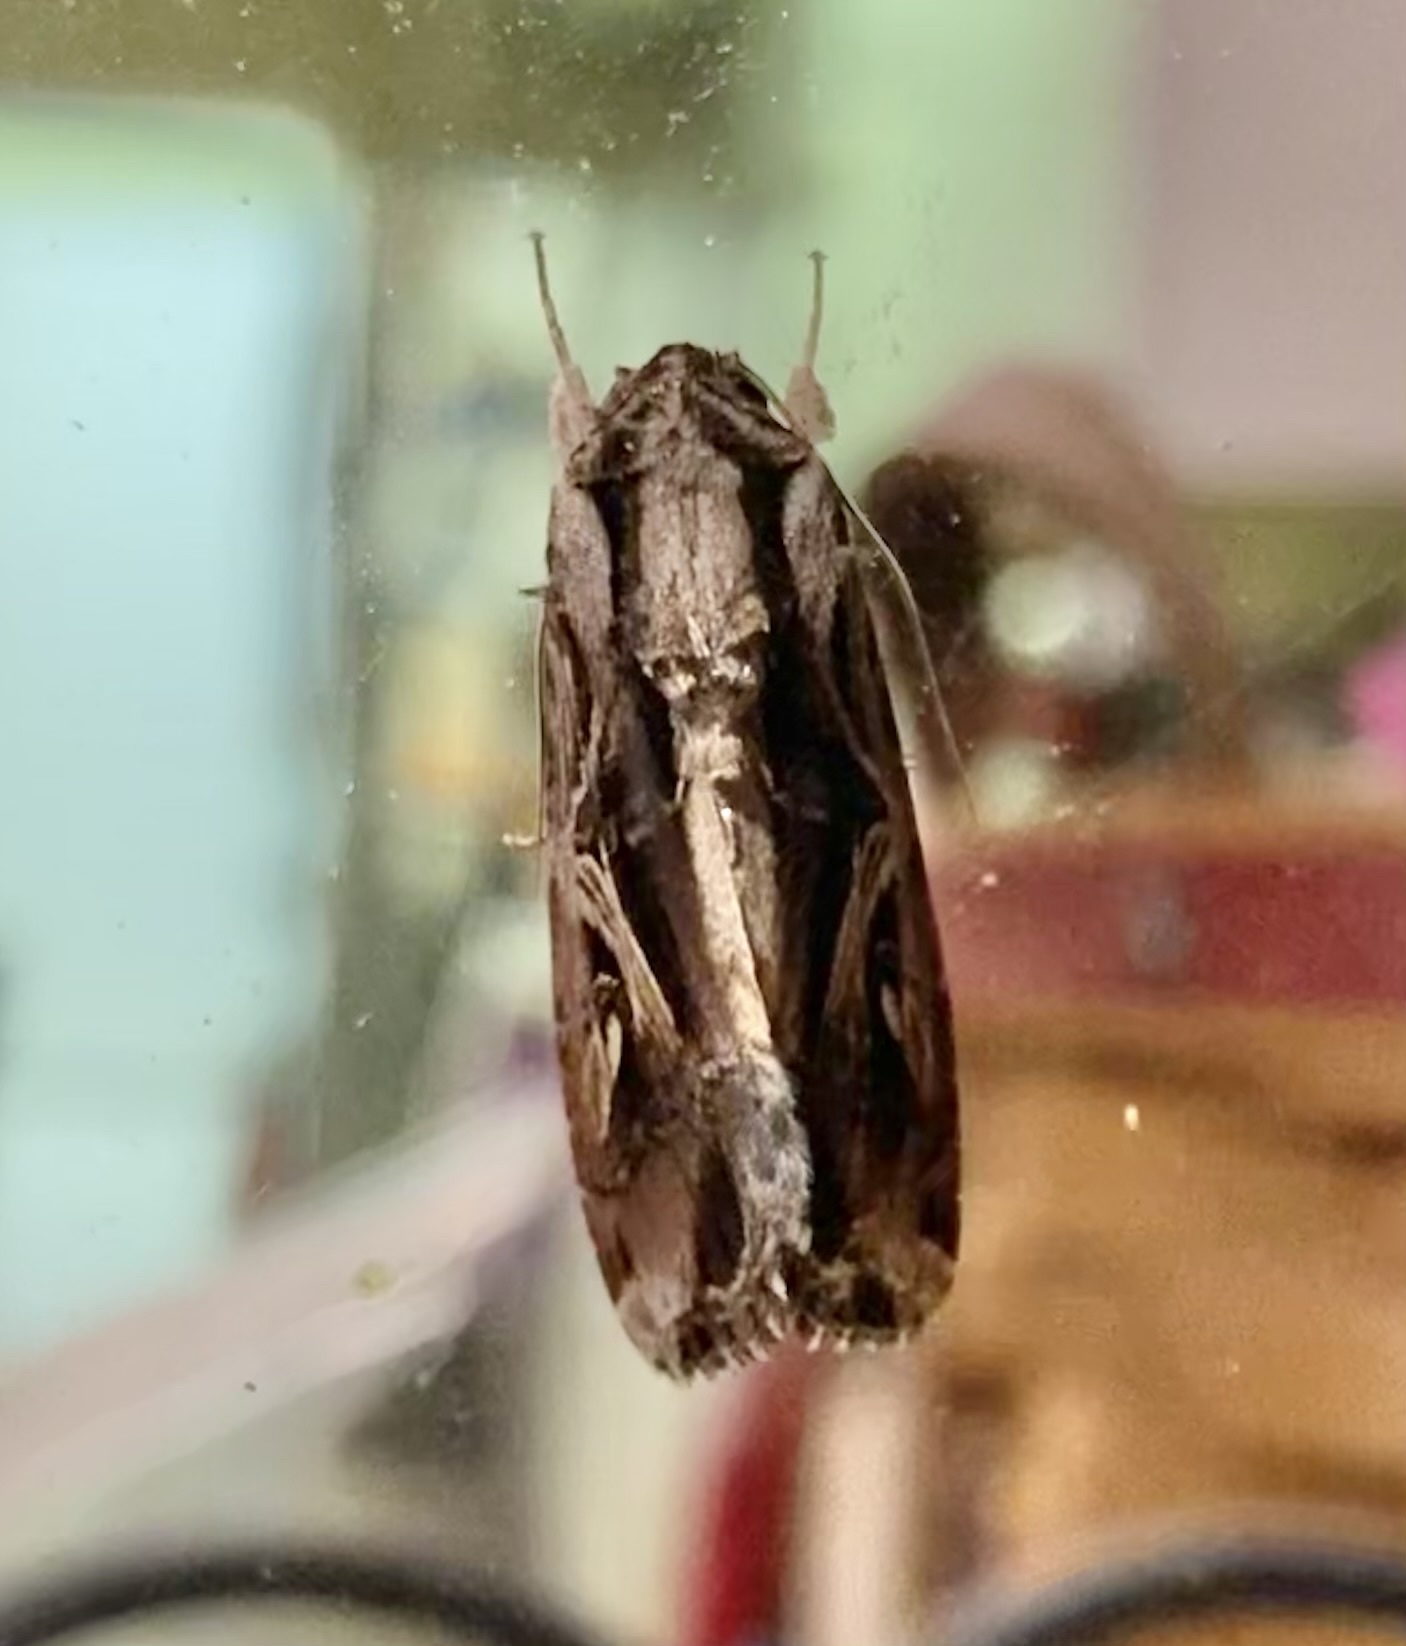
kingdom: Animalia
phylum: Arthropoda
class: Insecta
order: Lepidoptera
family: Noctuidae
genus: Spodoptera
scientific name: Spodoptera dolichos
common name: Sweetpotato armyworm
